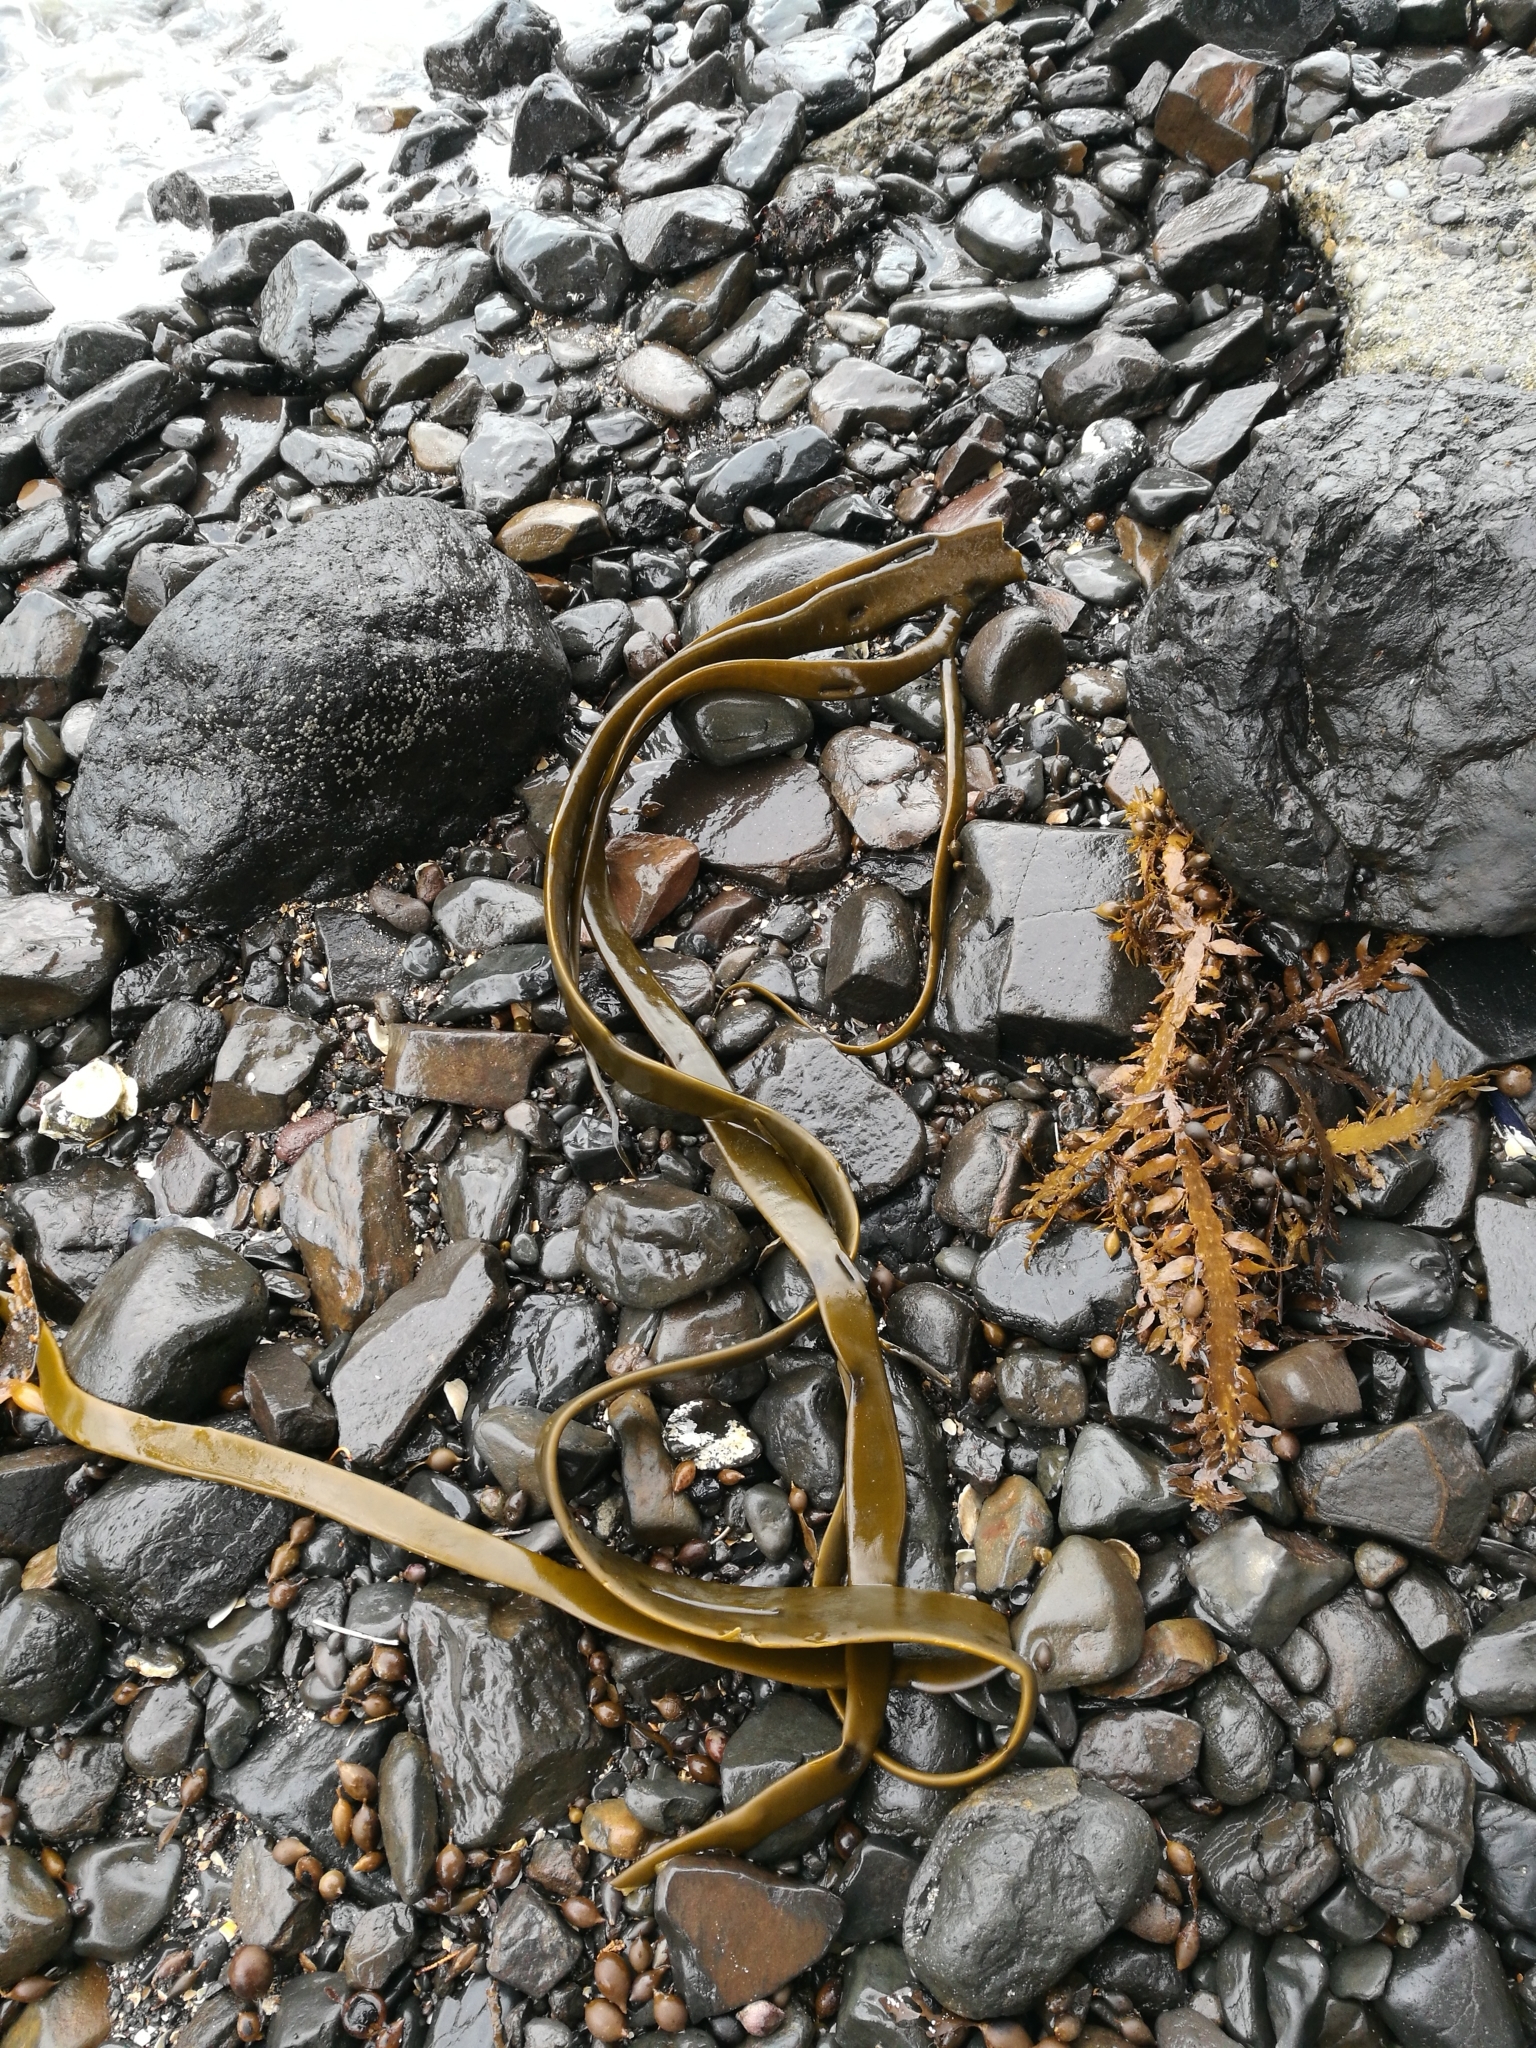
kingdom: Chromista
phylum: Ochrophyta
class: Phaeophyceae
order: Fucales
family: Durvillaeaceae
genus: Durvillaea
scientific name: Durvillaea antarctica
